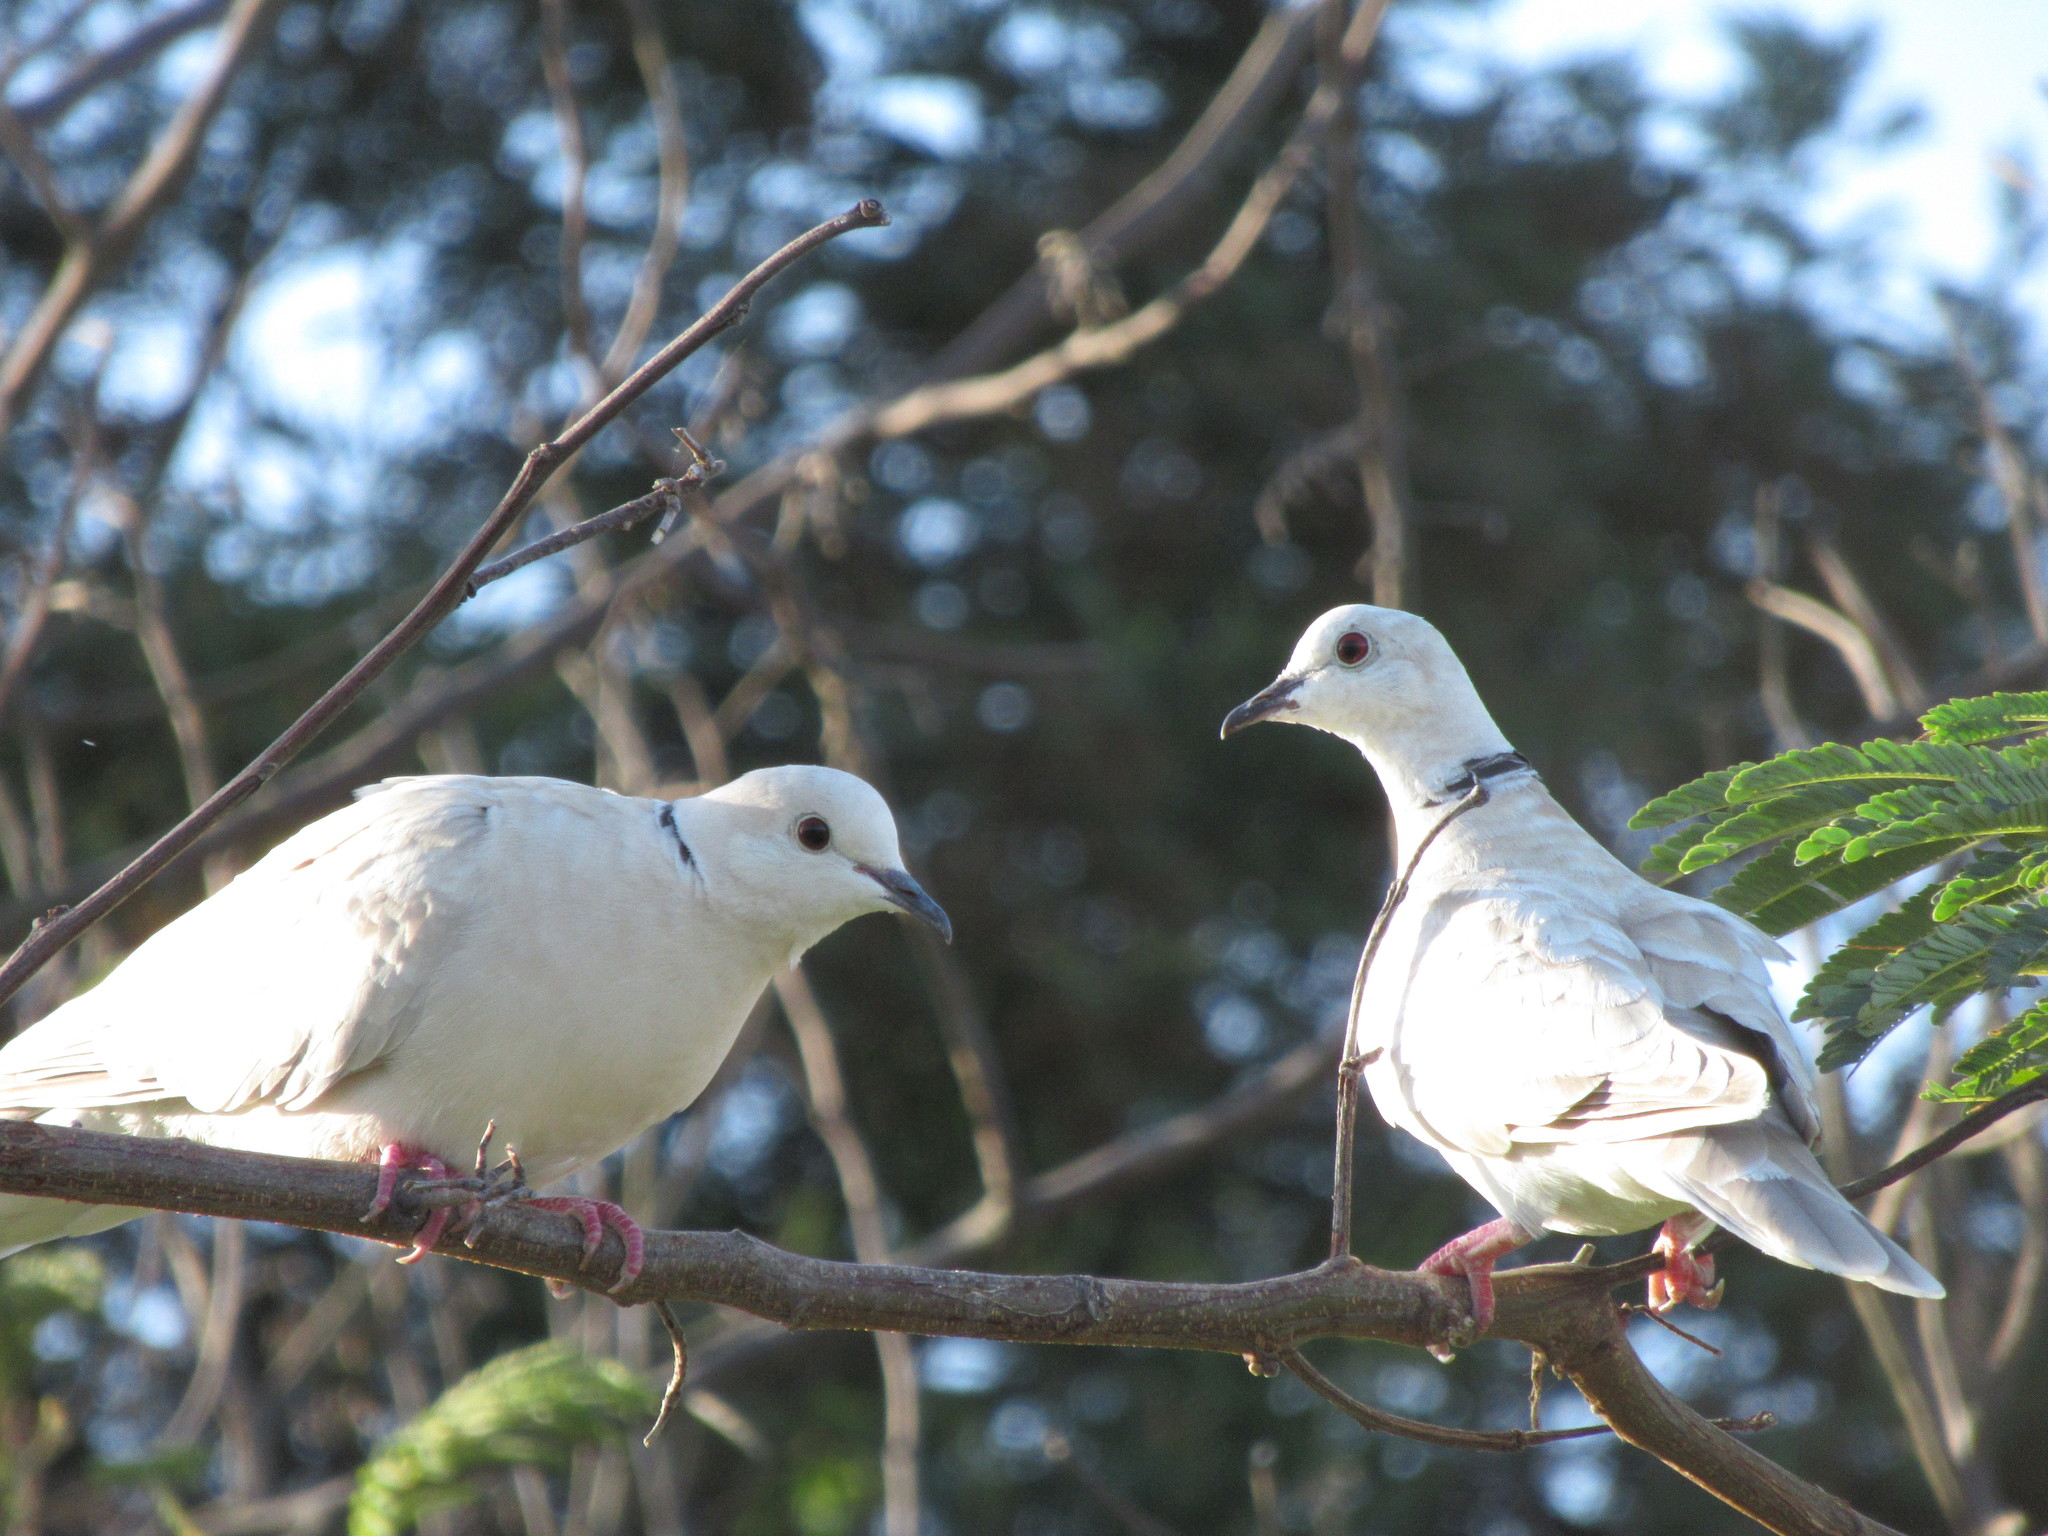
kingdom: Animalia
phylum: Chordata
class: Aves
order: Columbiformes
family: Columbidae
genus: Streptopelia
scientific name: Streptopelia roseogrisea
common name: African collared dove
